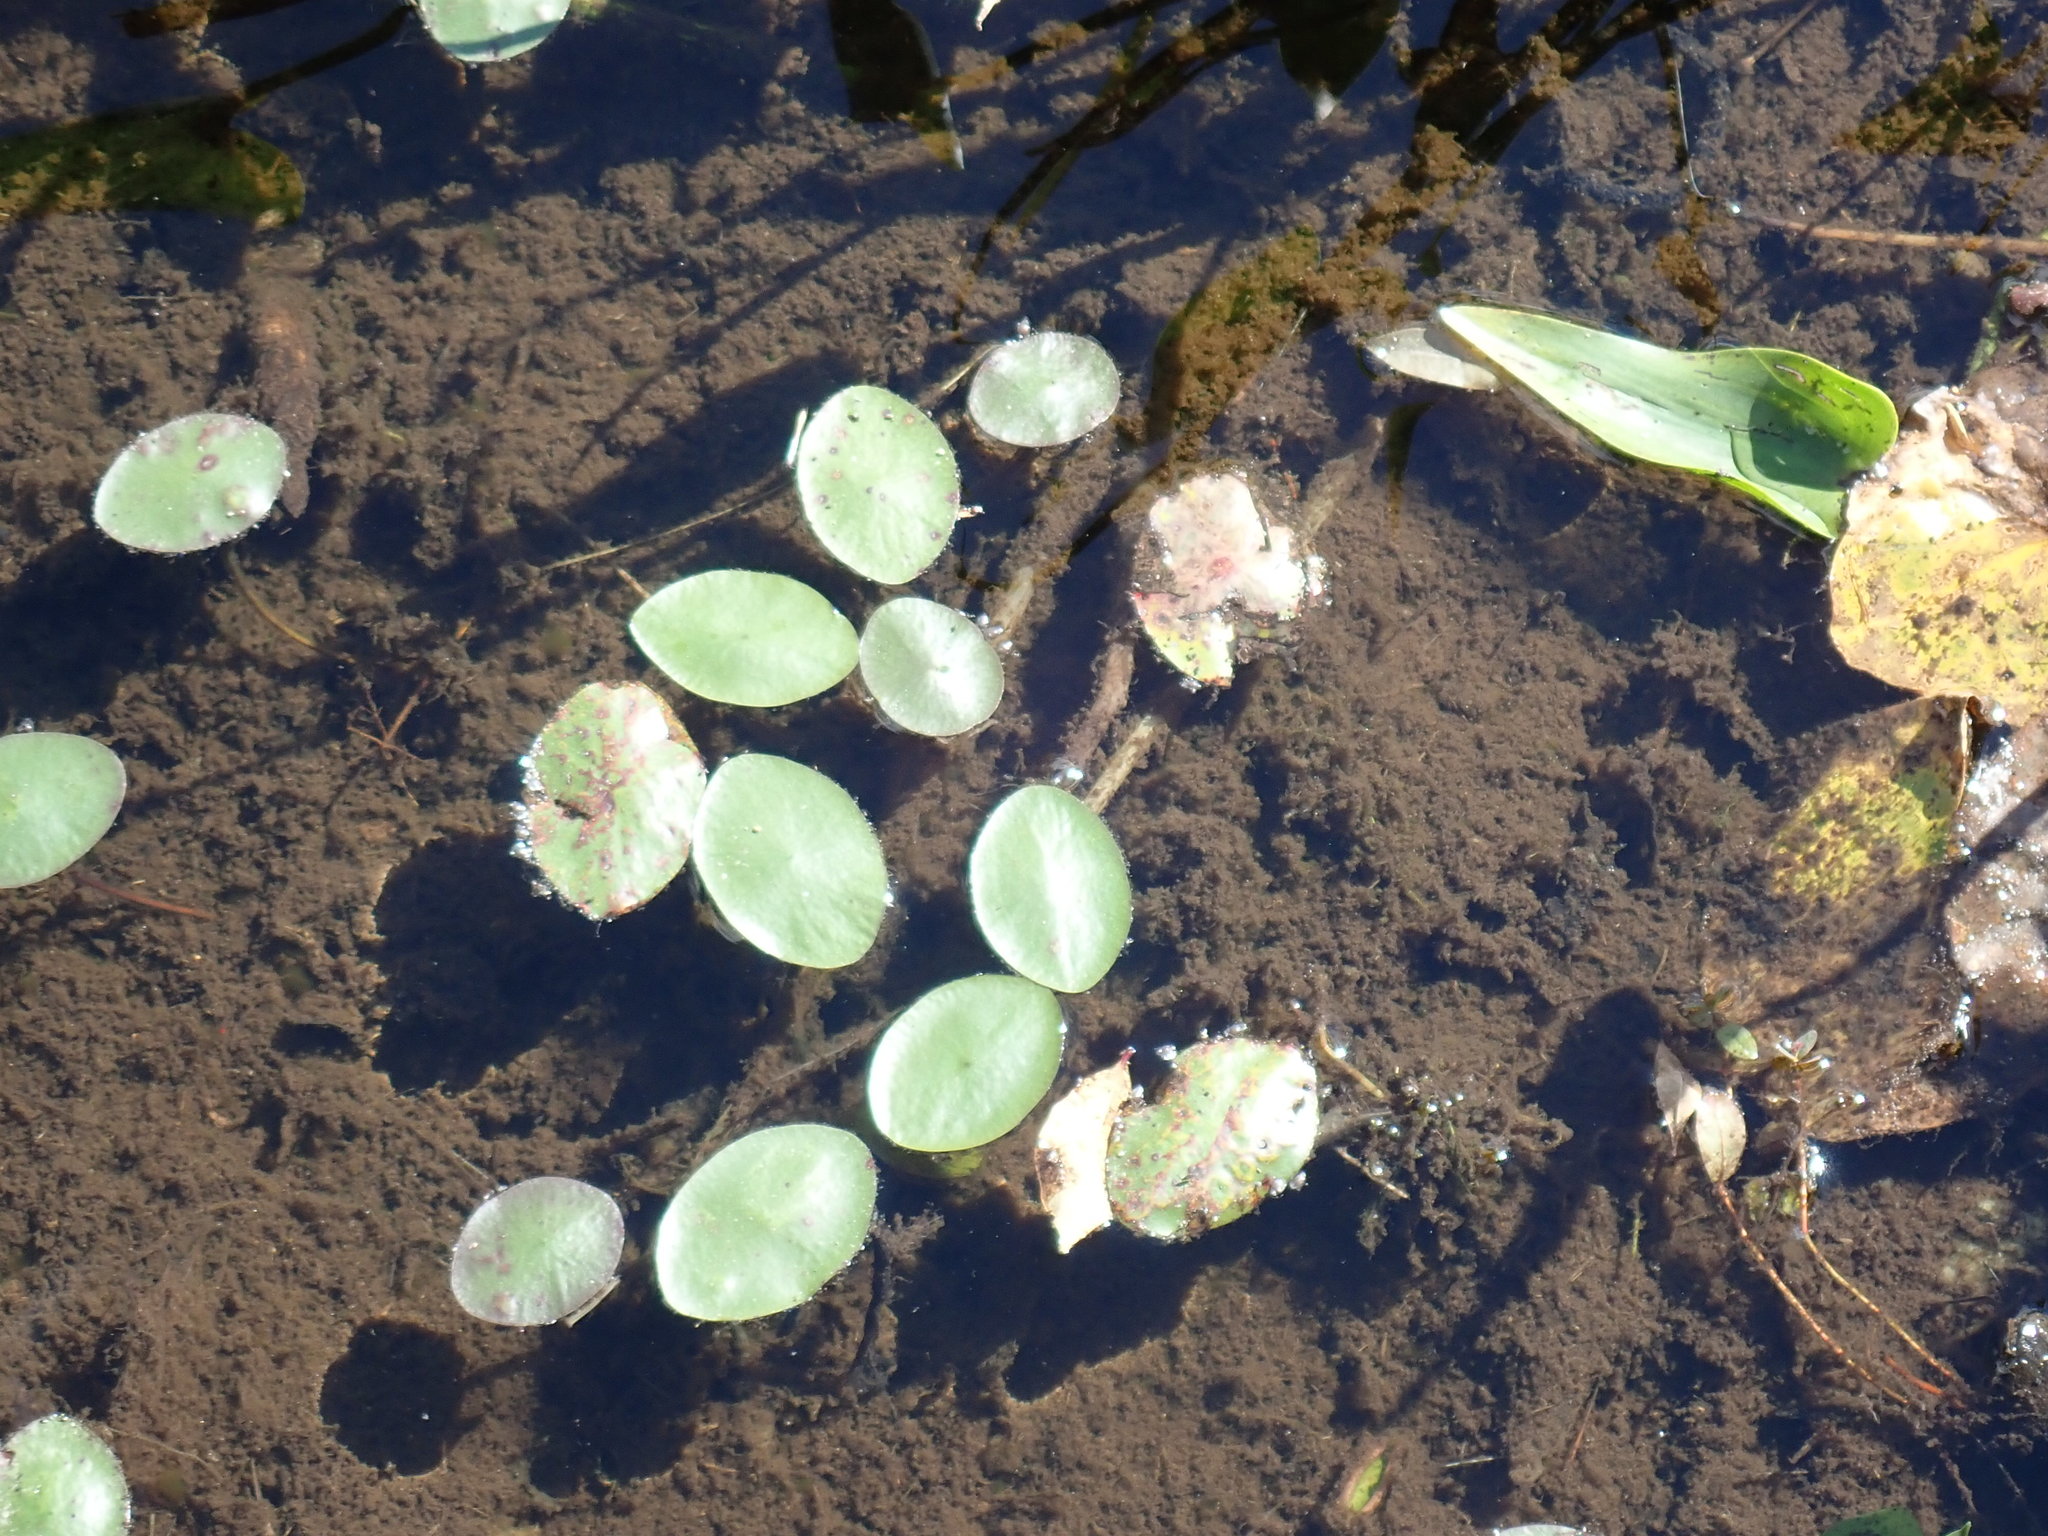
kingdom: Plantae
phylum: Tracheophyta
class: Magnoliopsida
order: Nymphaeales
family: Cabombaceae
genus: Brasenia
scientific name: Brasenia schreberi
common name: Water-shield
